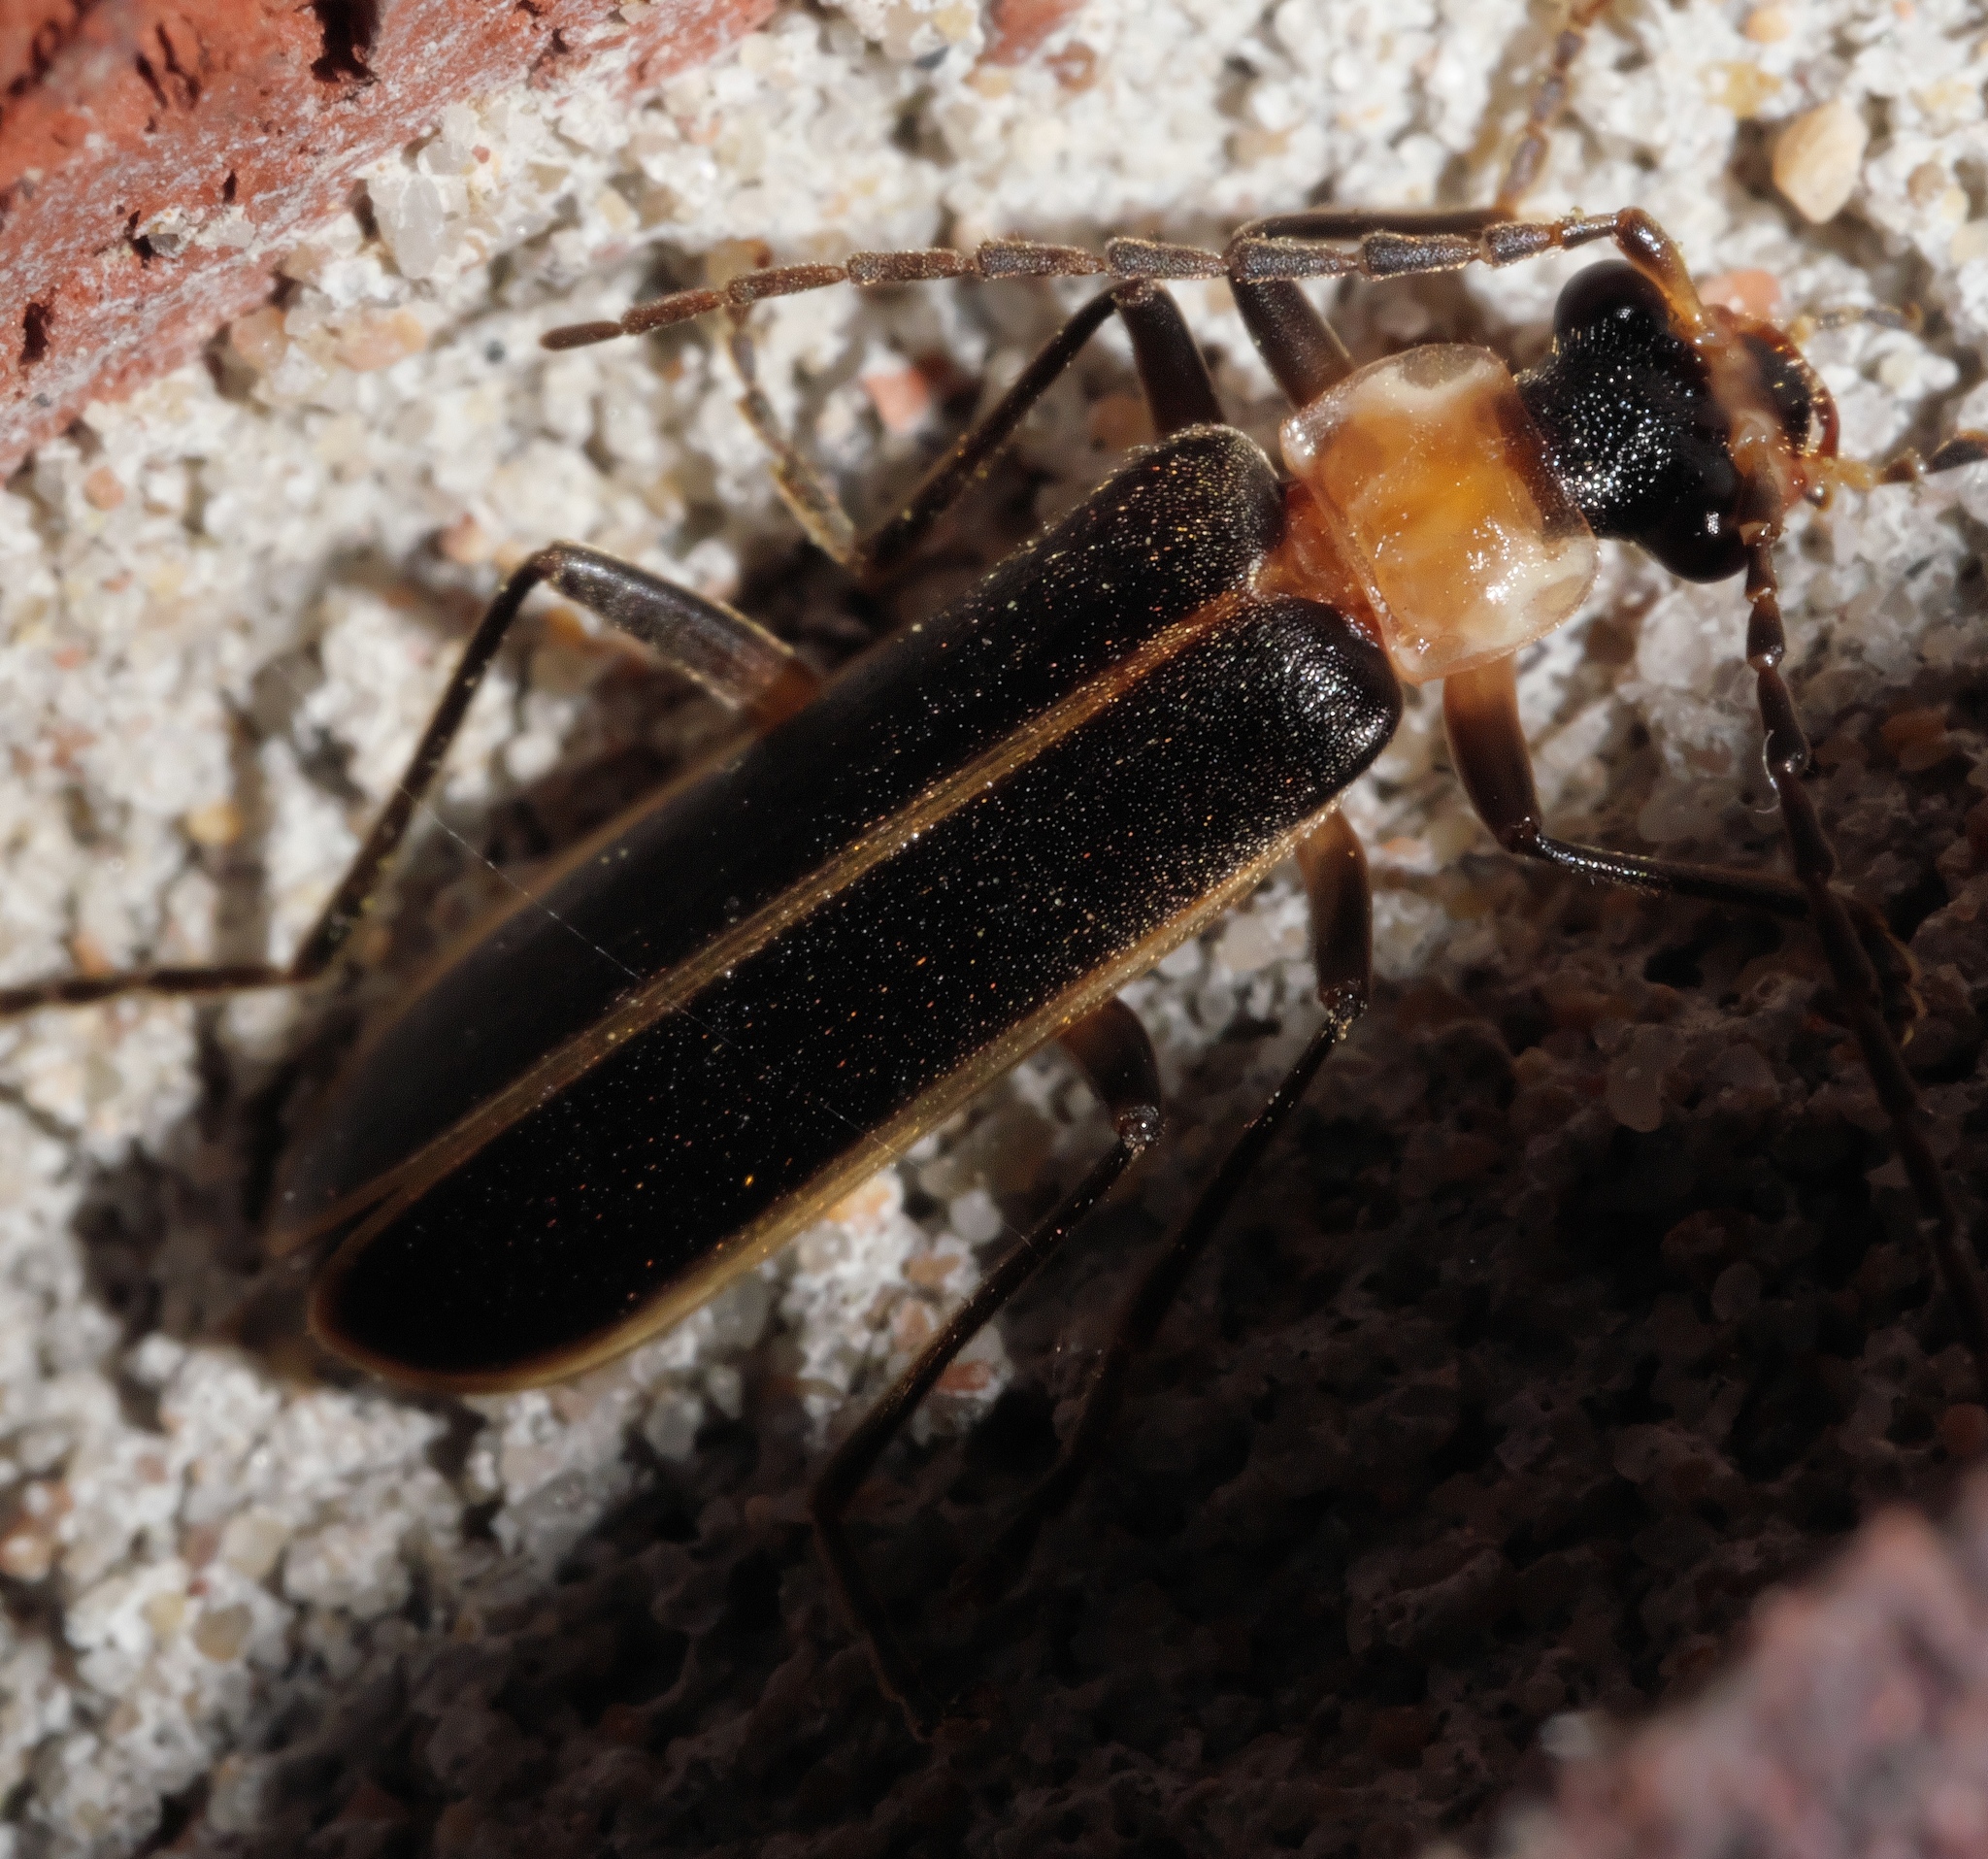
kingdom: Animalia
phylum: Arthropoda
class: Insecta
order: Coleoptera
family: Cantharidae
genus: Podabrus
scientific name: Podabrus flavicollis
